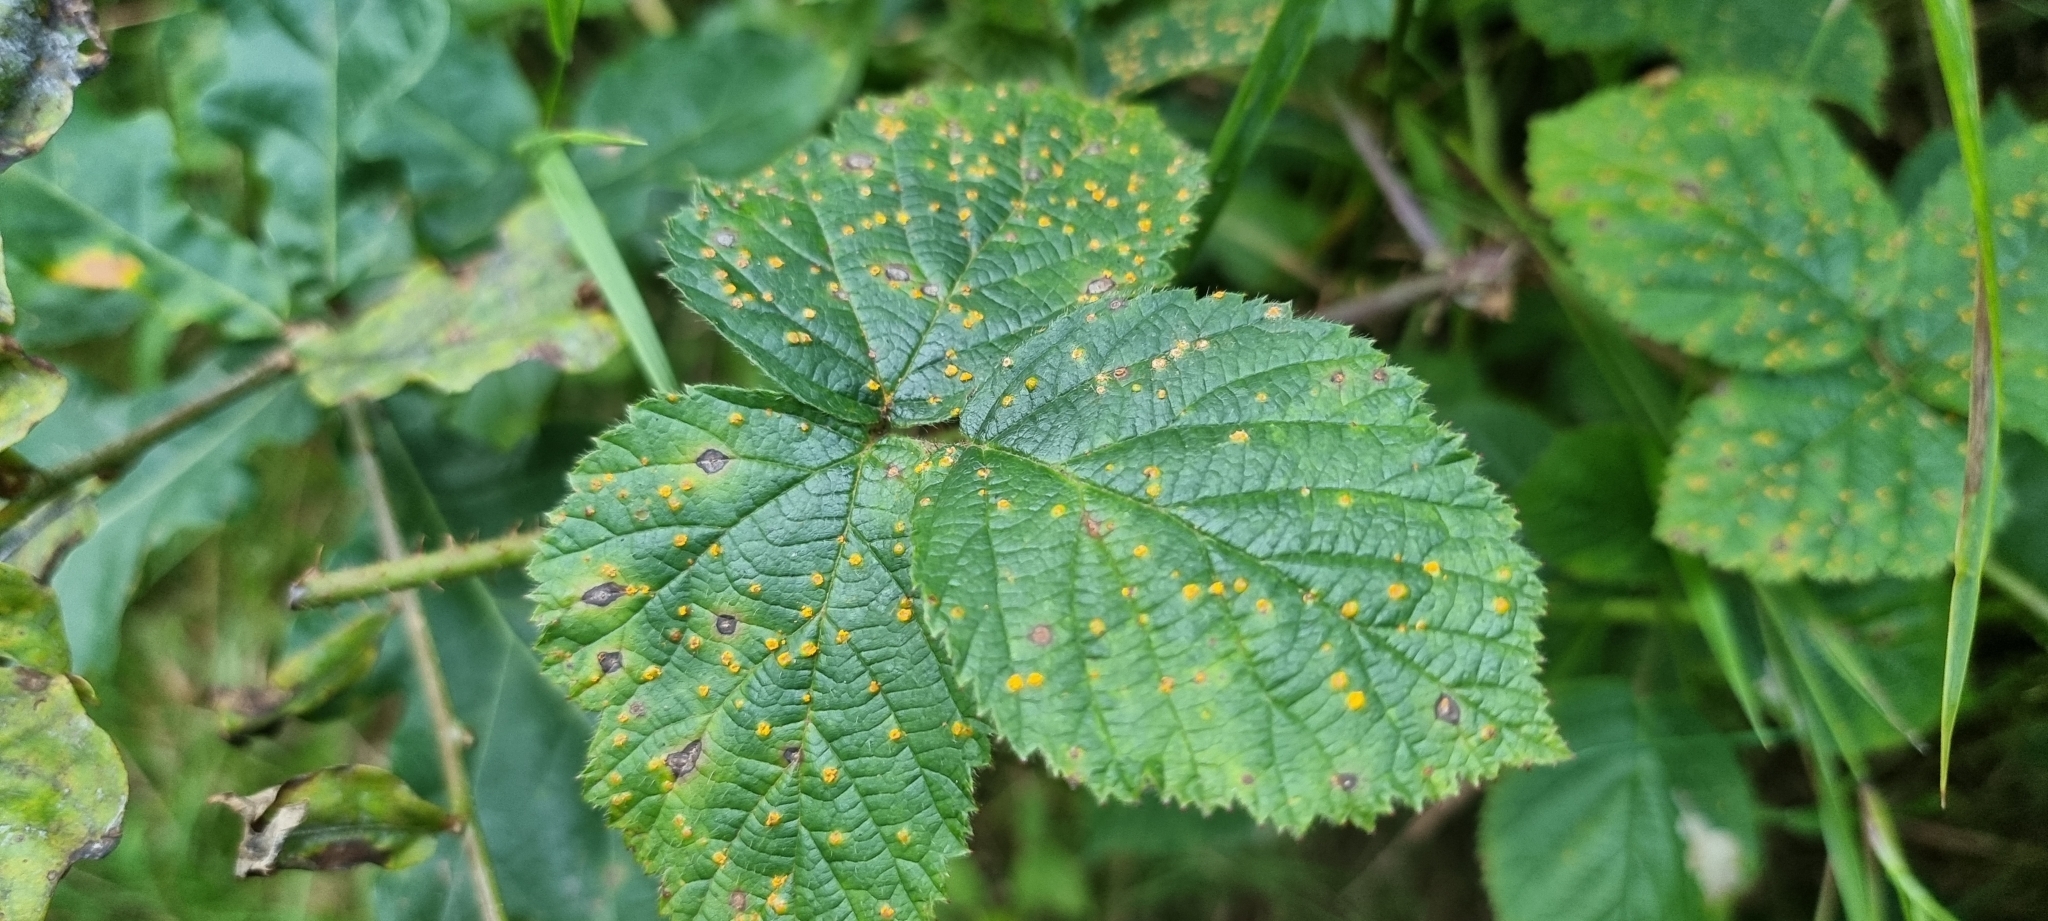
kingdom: Fungi
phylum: Basidiomycota
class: Pucciniomycetes
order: Pucciniales
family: Phragmidiaceae
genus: Kuehneola
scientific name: Kuehneola uredinis
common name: Bramble stem rust
